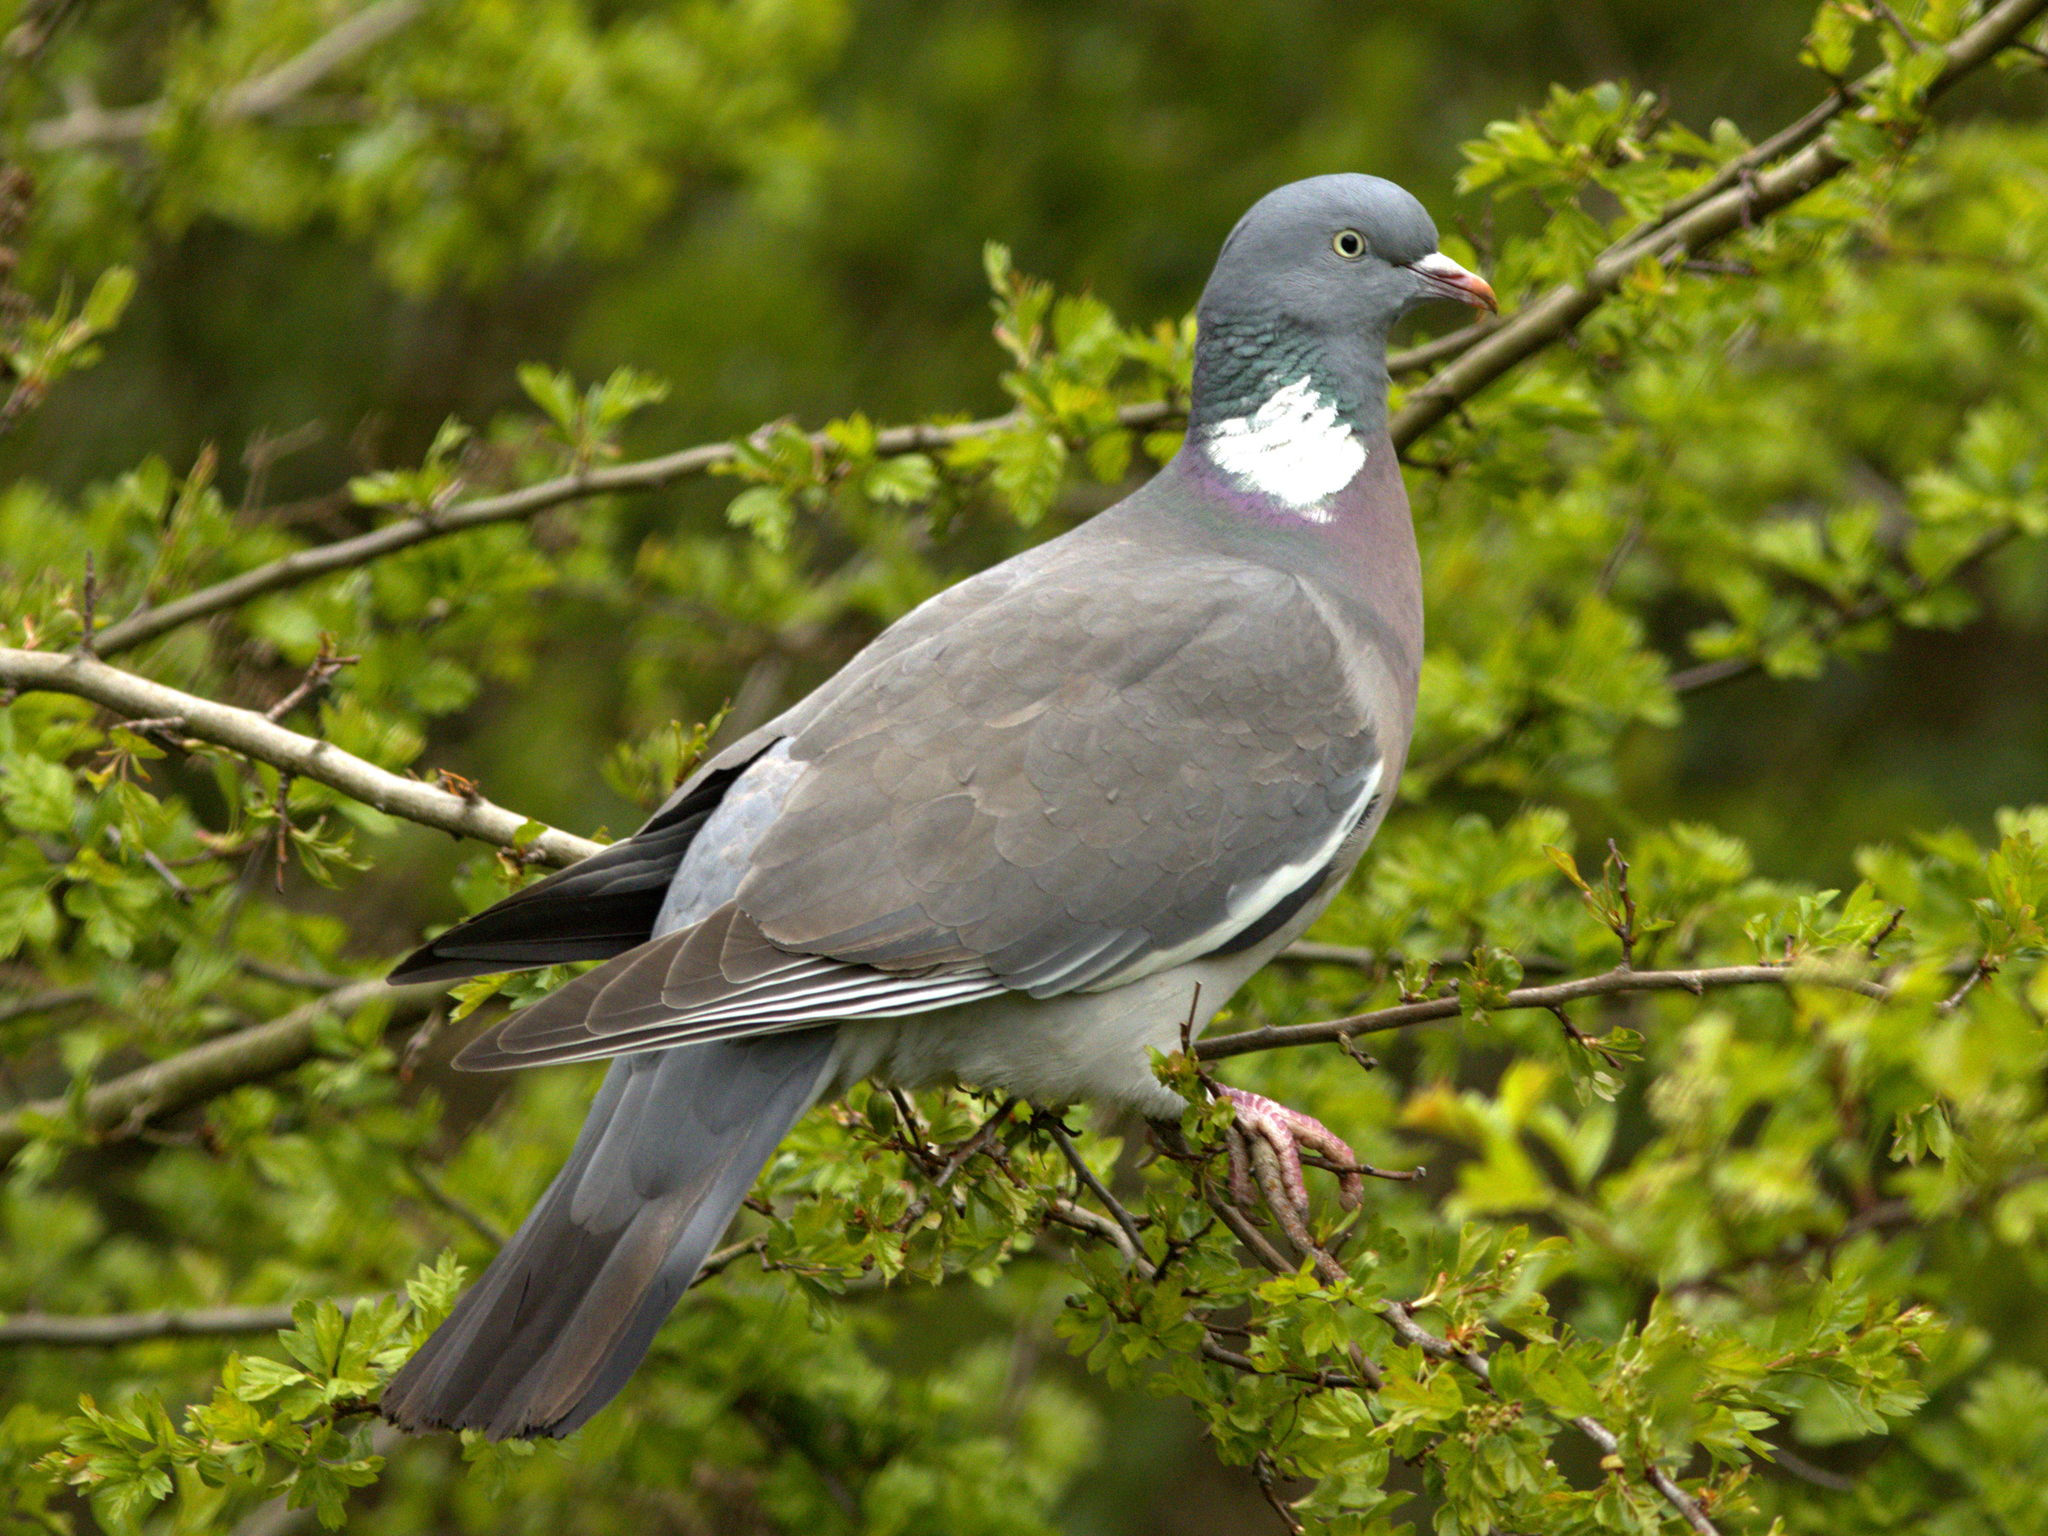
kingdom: Animalia
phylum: Chordata
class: Aves
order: Columbiformes
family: Columbidae
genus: Columba
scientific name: Columba palumbus
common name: Common wood pigeon
